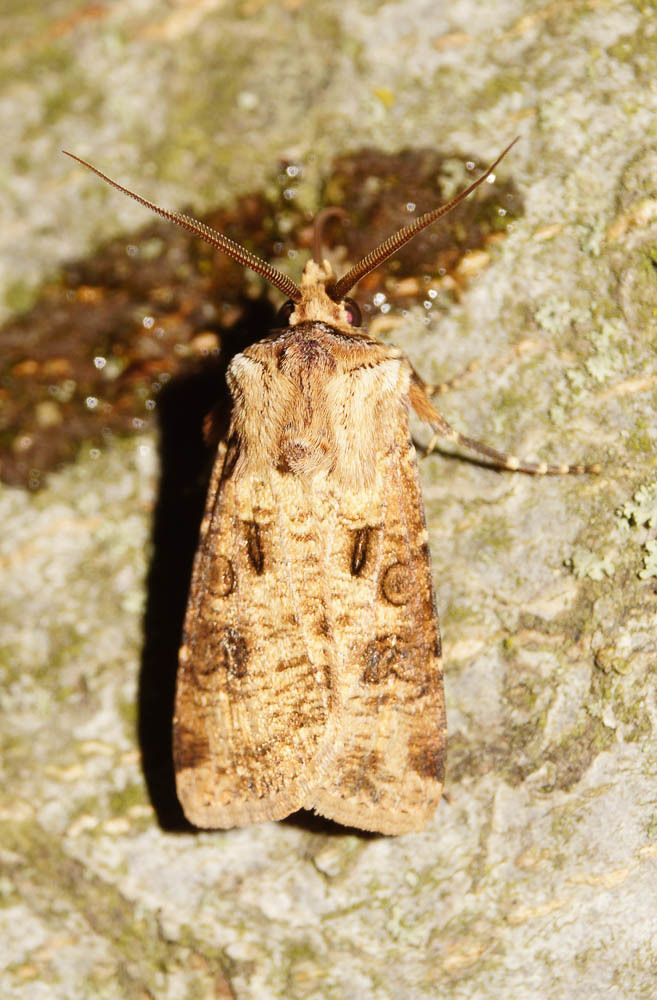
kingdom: Animalia
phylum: Arthropoda
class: Insecta
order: Lepidoptera
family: Noctuidae
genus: Agrotis
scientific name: Agrotis clavis
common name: Heart and club
